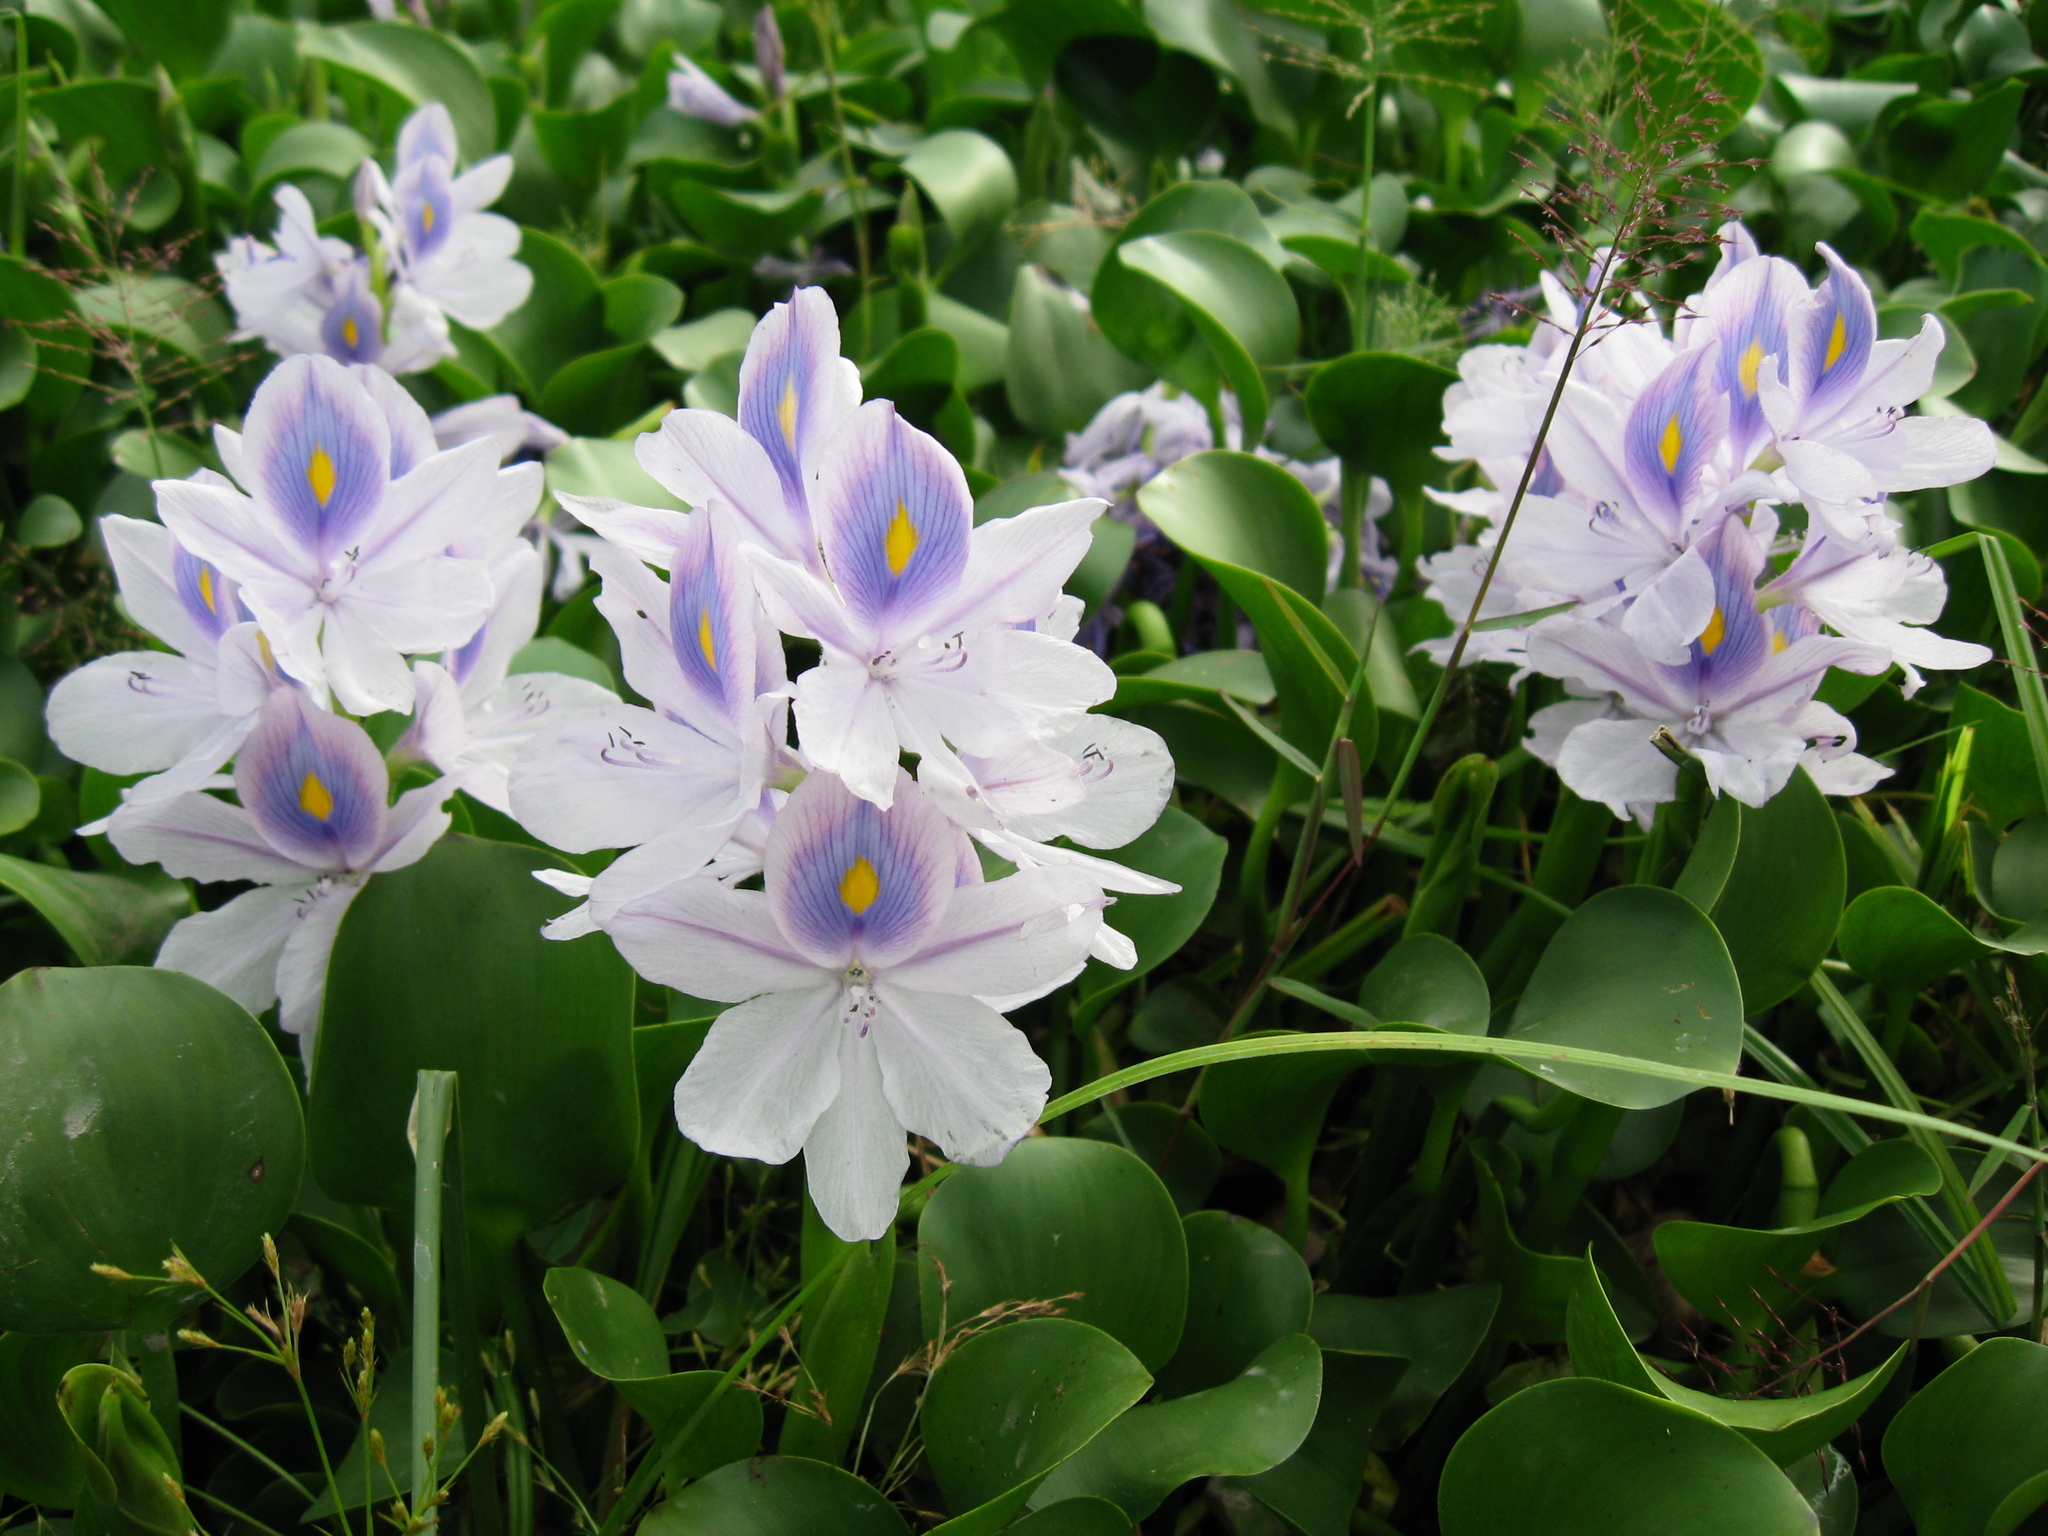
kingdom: Plantae
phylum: Tracheophyta
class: Liliopsida
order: Commelinales
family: Pontederiaceae
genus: Pontederia
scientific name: Pontederia crassipes
